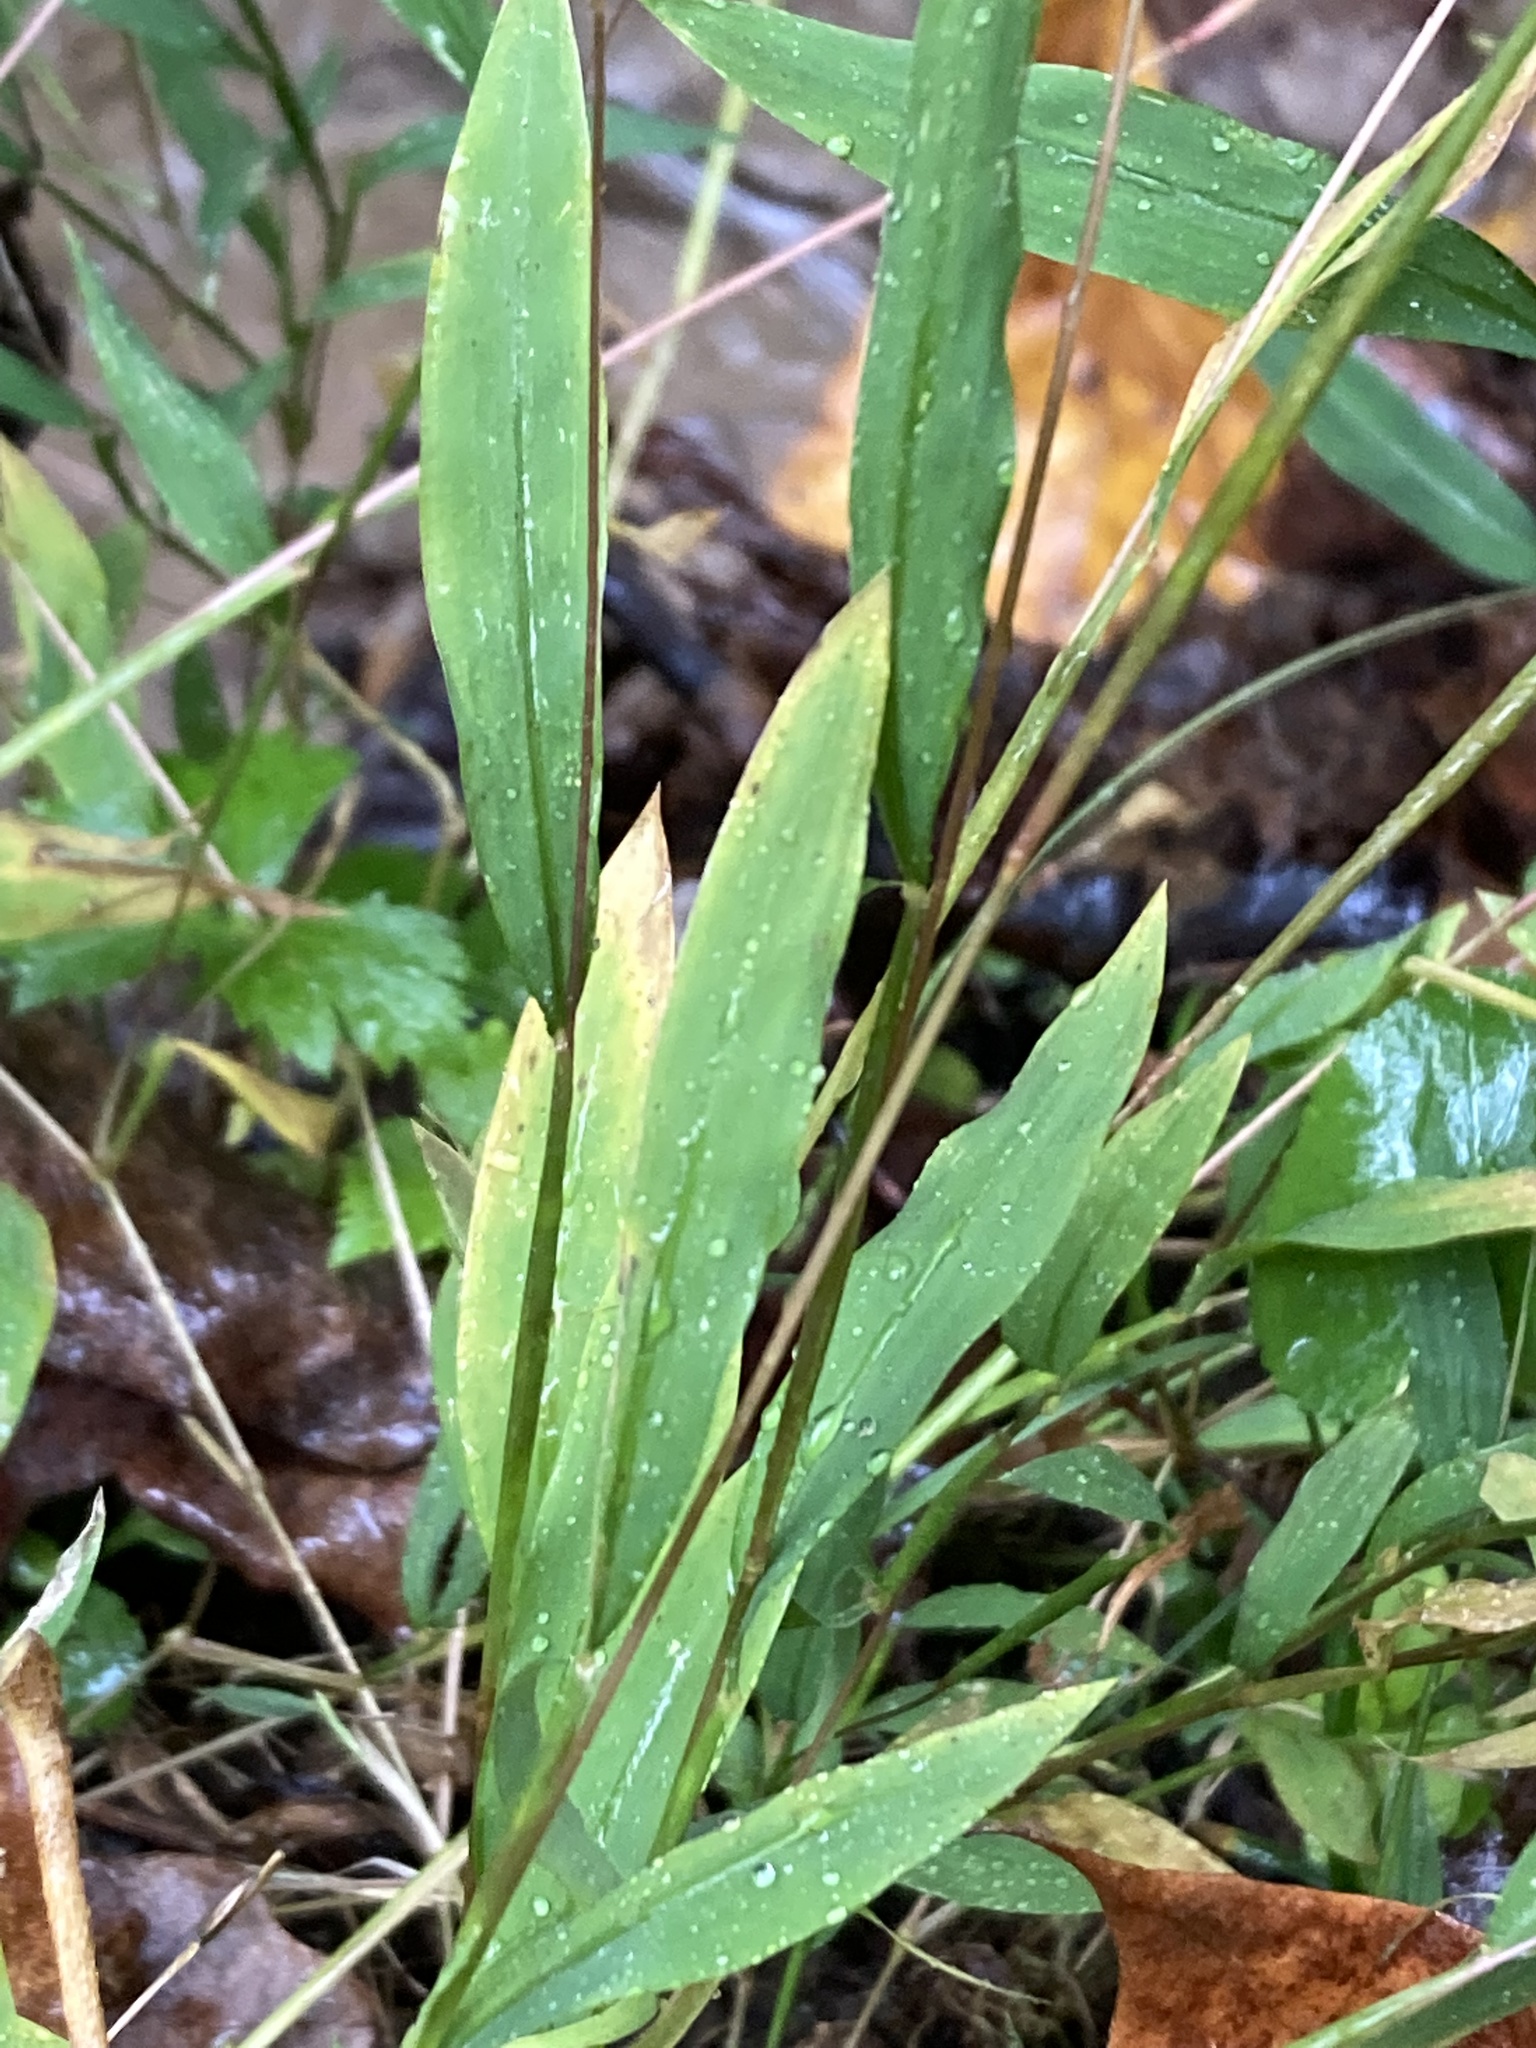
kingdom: Plantae
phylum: Tracheophyta
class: Liliopsida
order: Poales
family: Poaceae
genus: Microstegium
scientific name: Microstegium vimineum
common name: Japanese stiltgrass
